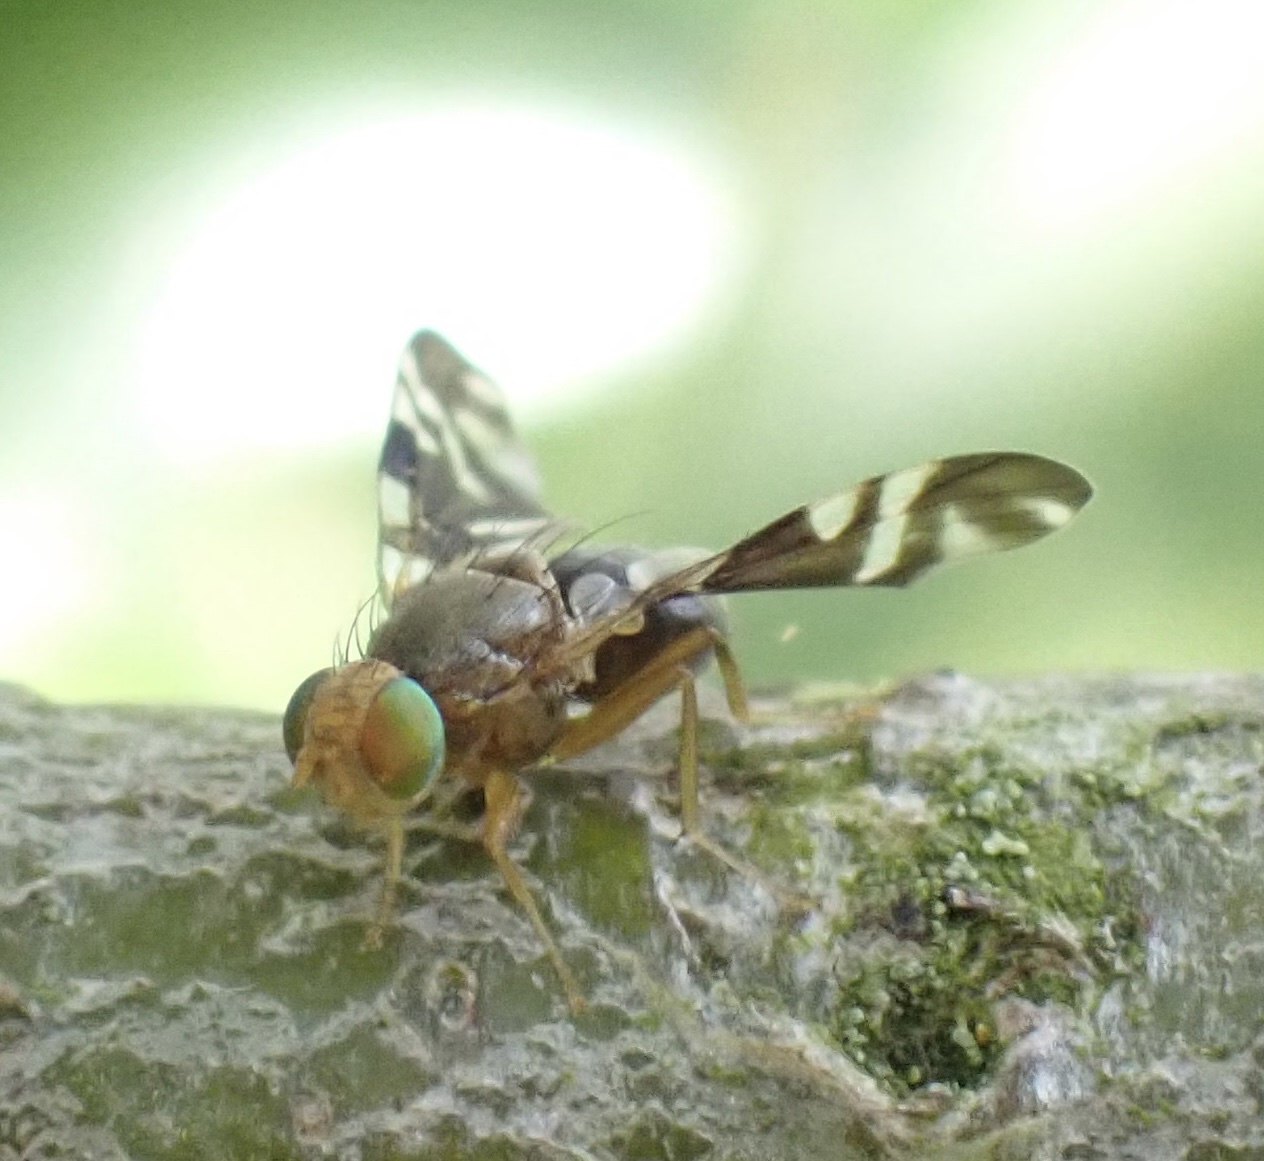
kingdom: Animalia
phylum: Arthropoda
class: Insecta
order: Diptera
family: Tephritidae
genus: Philophylla
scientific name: Philophylla caesio
